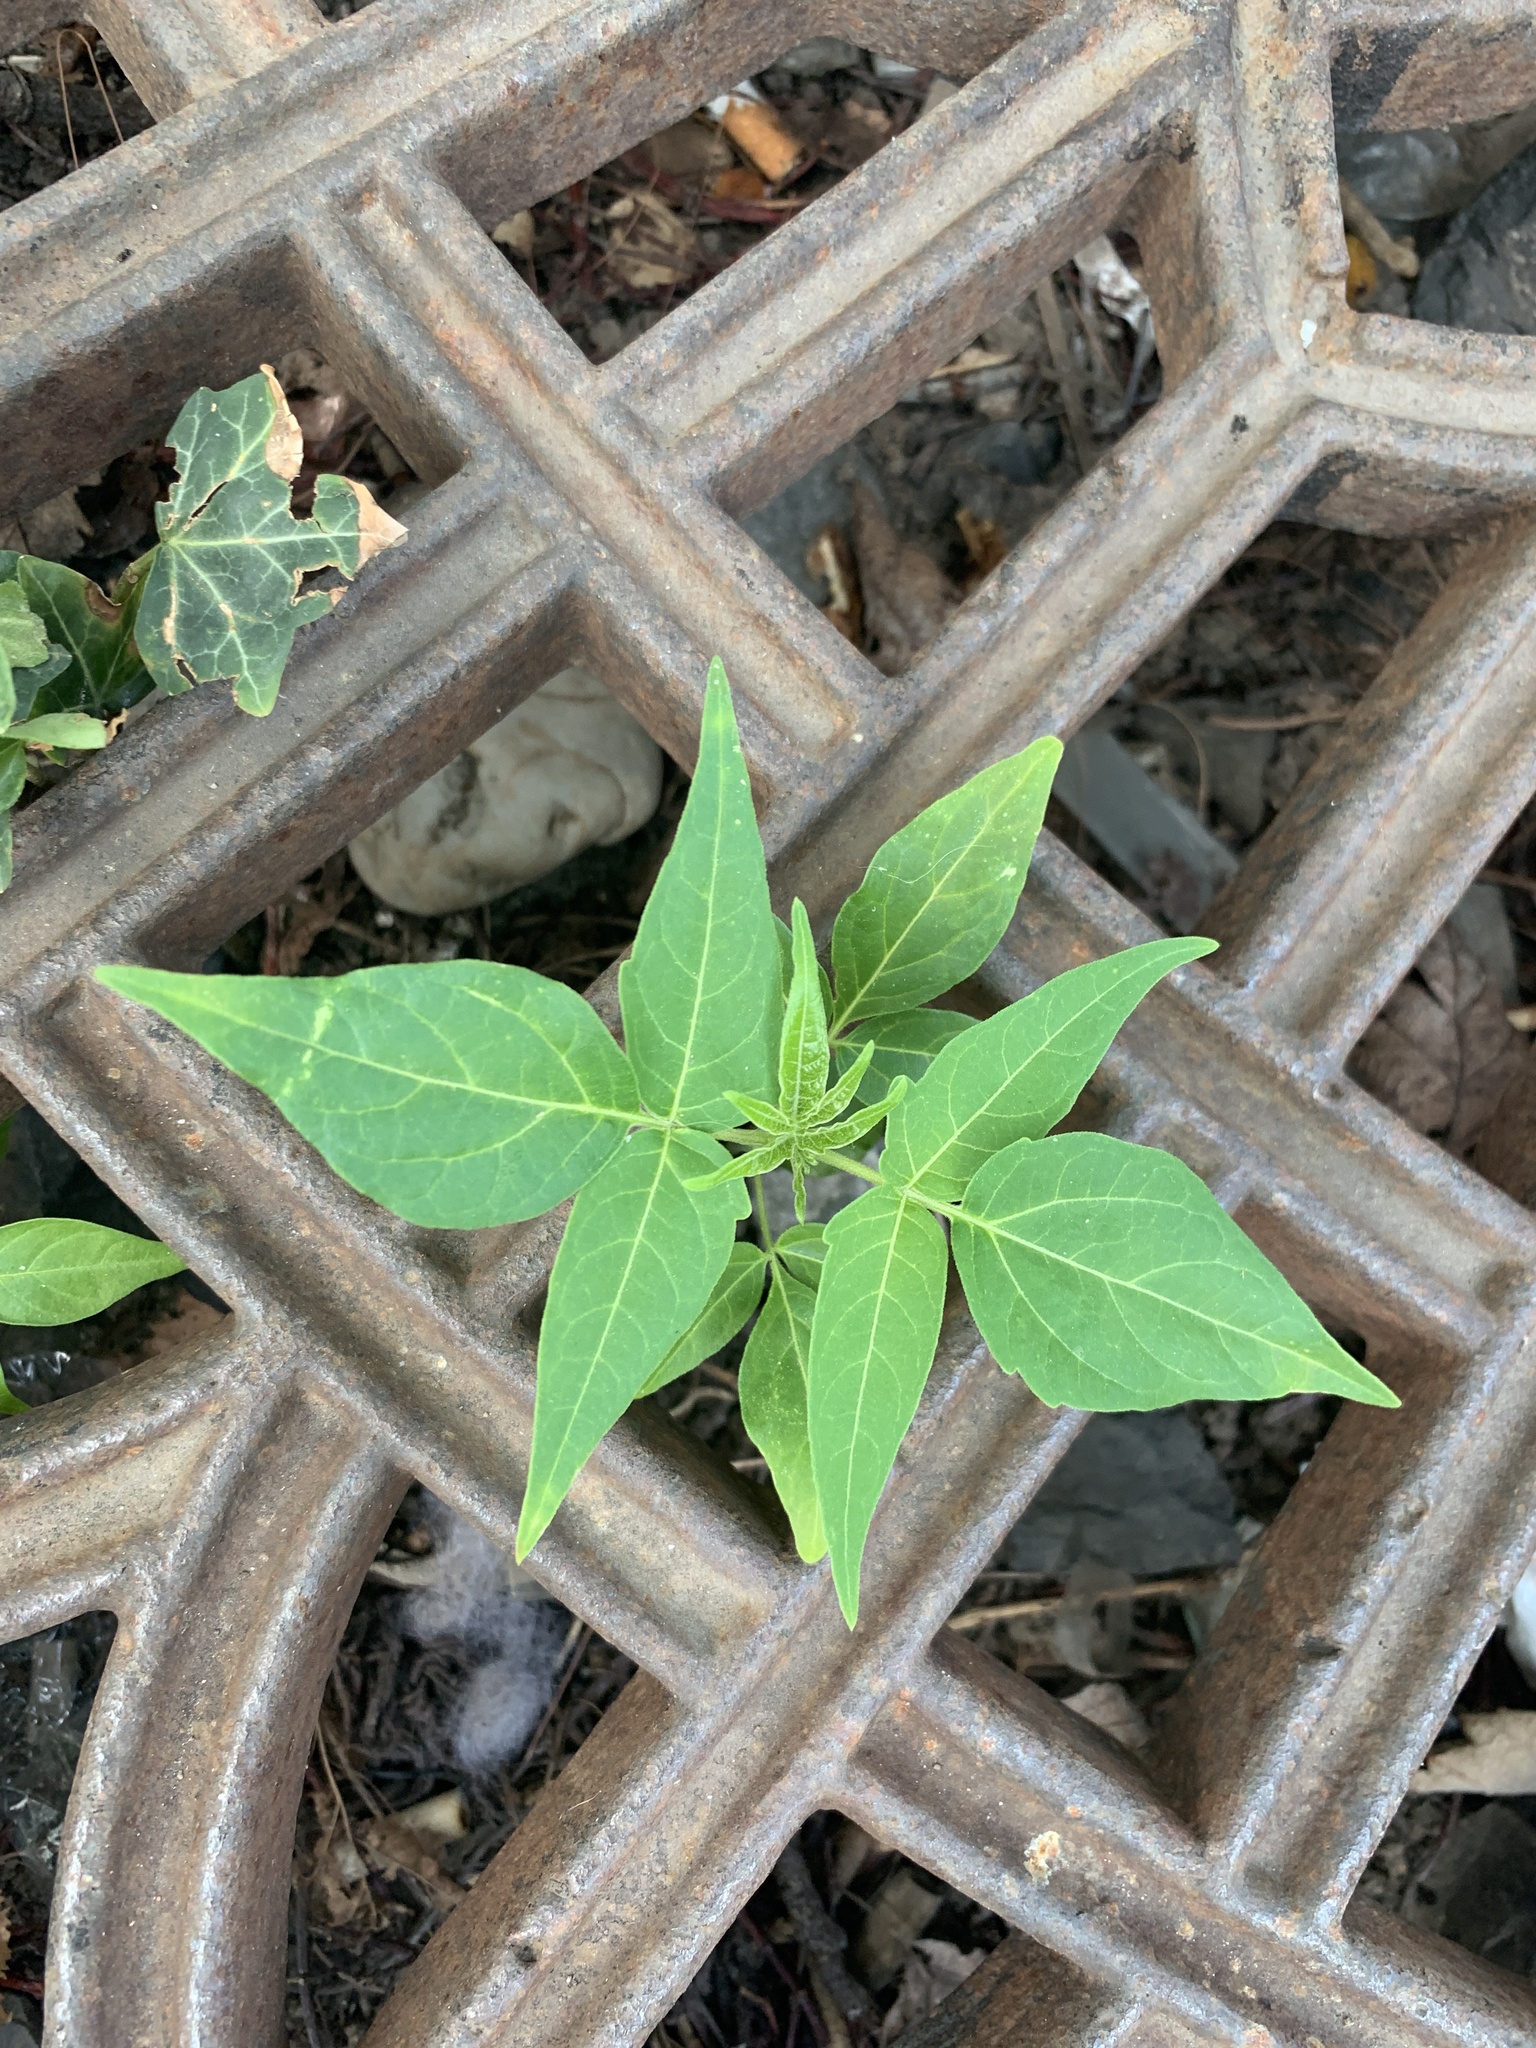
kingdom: Plantae
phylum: Tracheophyta
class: Magnoliopsida
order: Sapindales
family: Simaroubaceae
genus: Ailanthus
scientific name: Ailanthus altissima
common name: Tree-of-heaven
